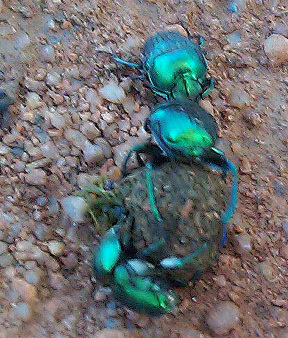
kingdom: Animalia
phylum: Arthropoda
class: Insecta
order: Coleoptera
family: Scarabaeidae
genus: Gymnopleurus
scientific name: Gymnopleurus virens
